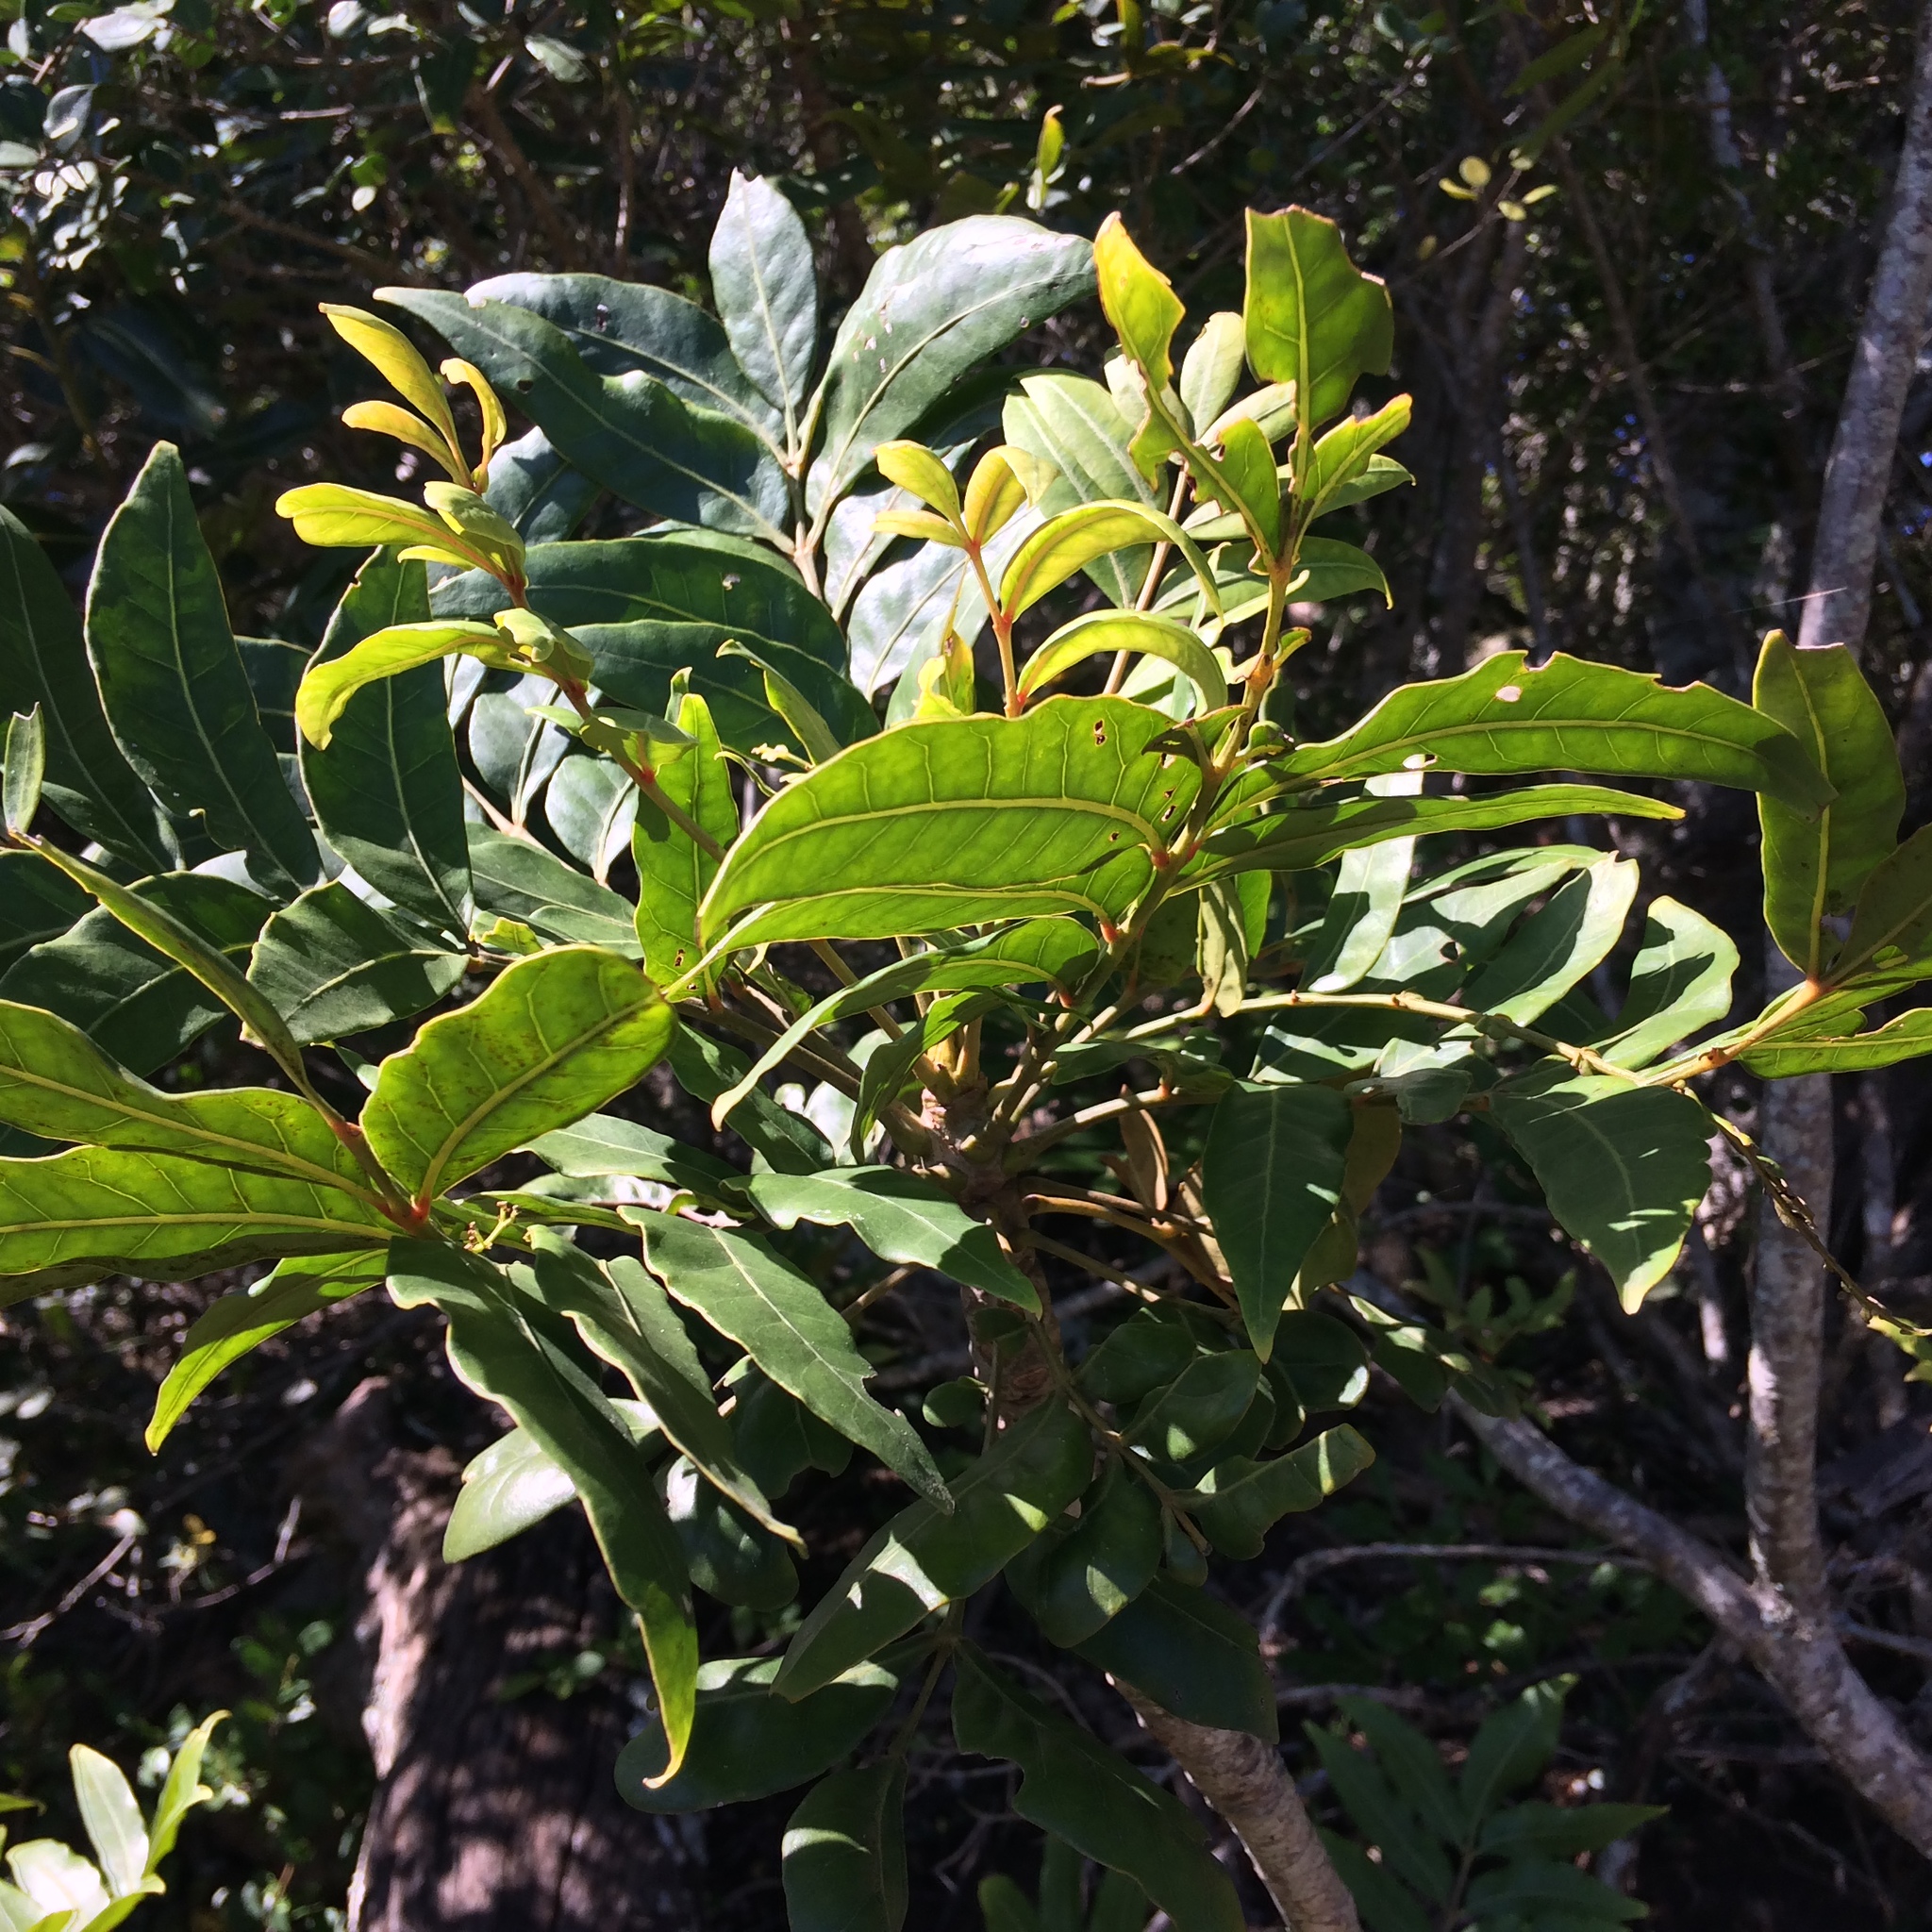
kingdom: Plantae
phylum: Tracheophyta
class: Magnoliopsida
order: Sapindales
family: Anacardiaceae
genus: Harpephyllum
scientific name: Harpephyllum caffrum
